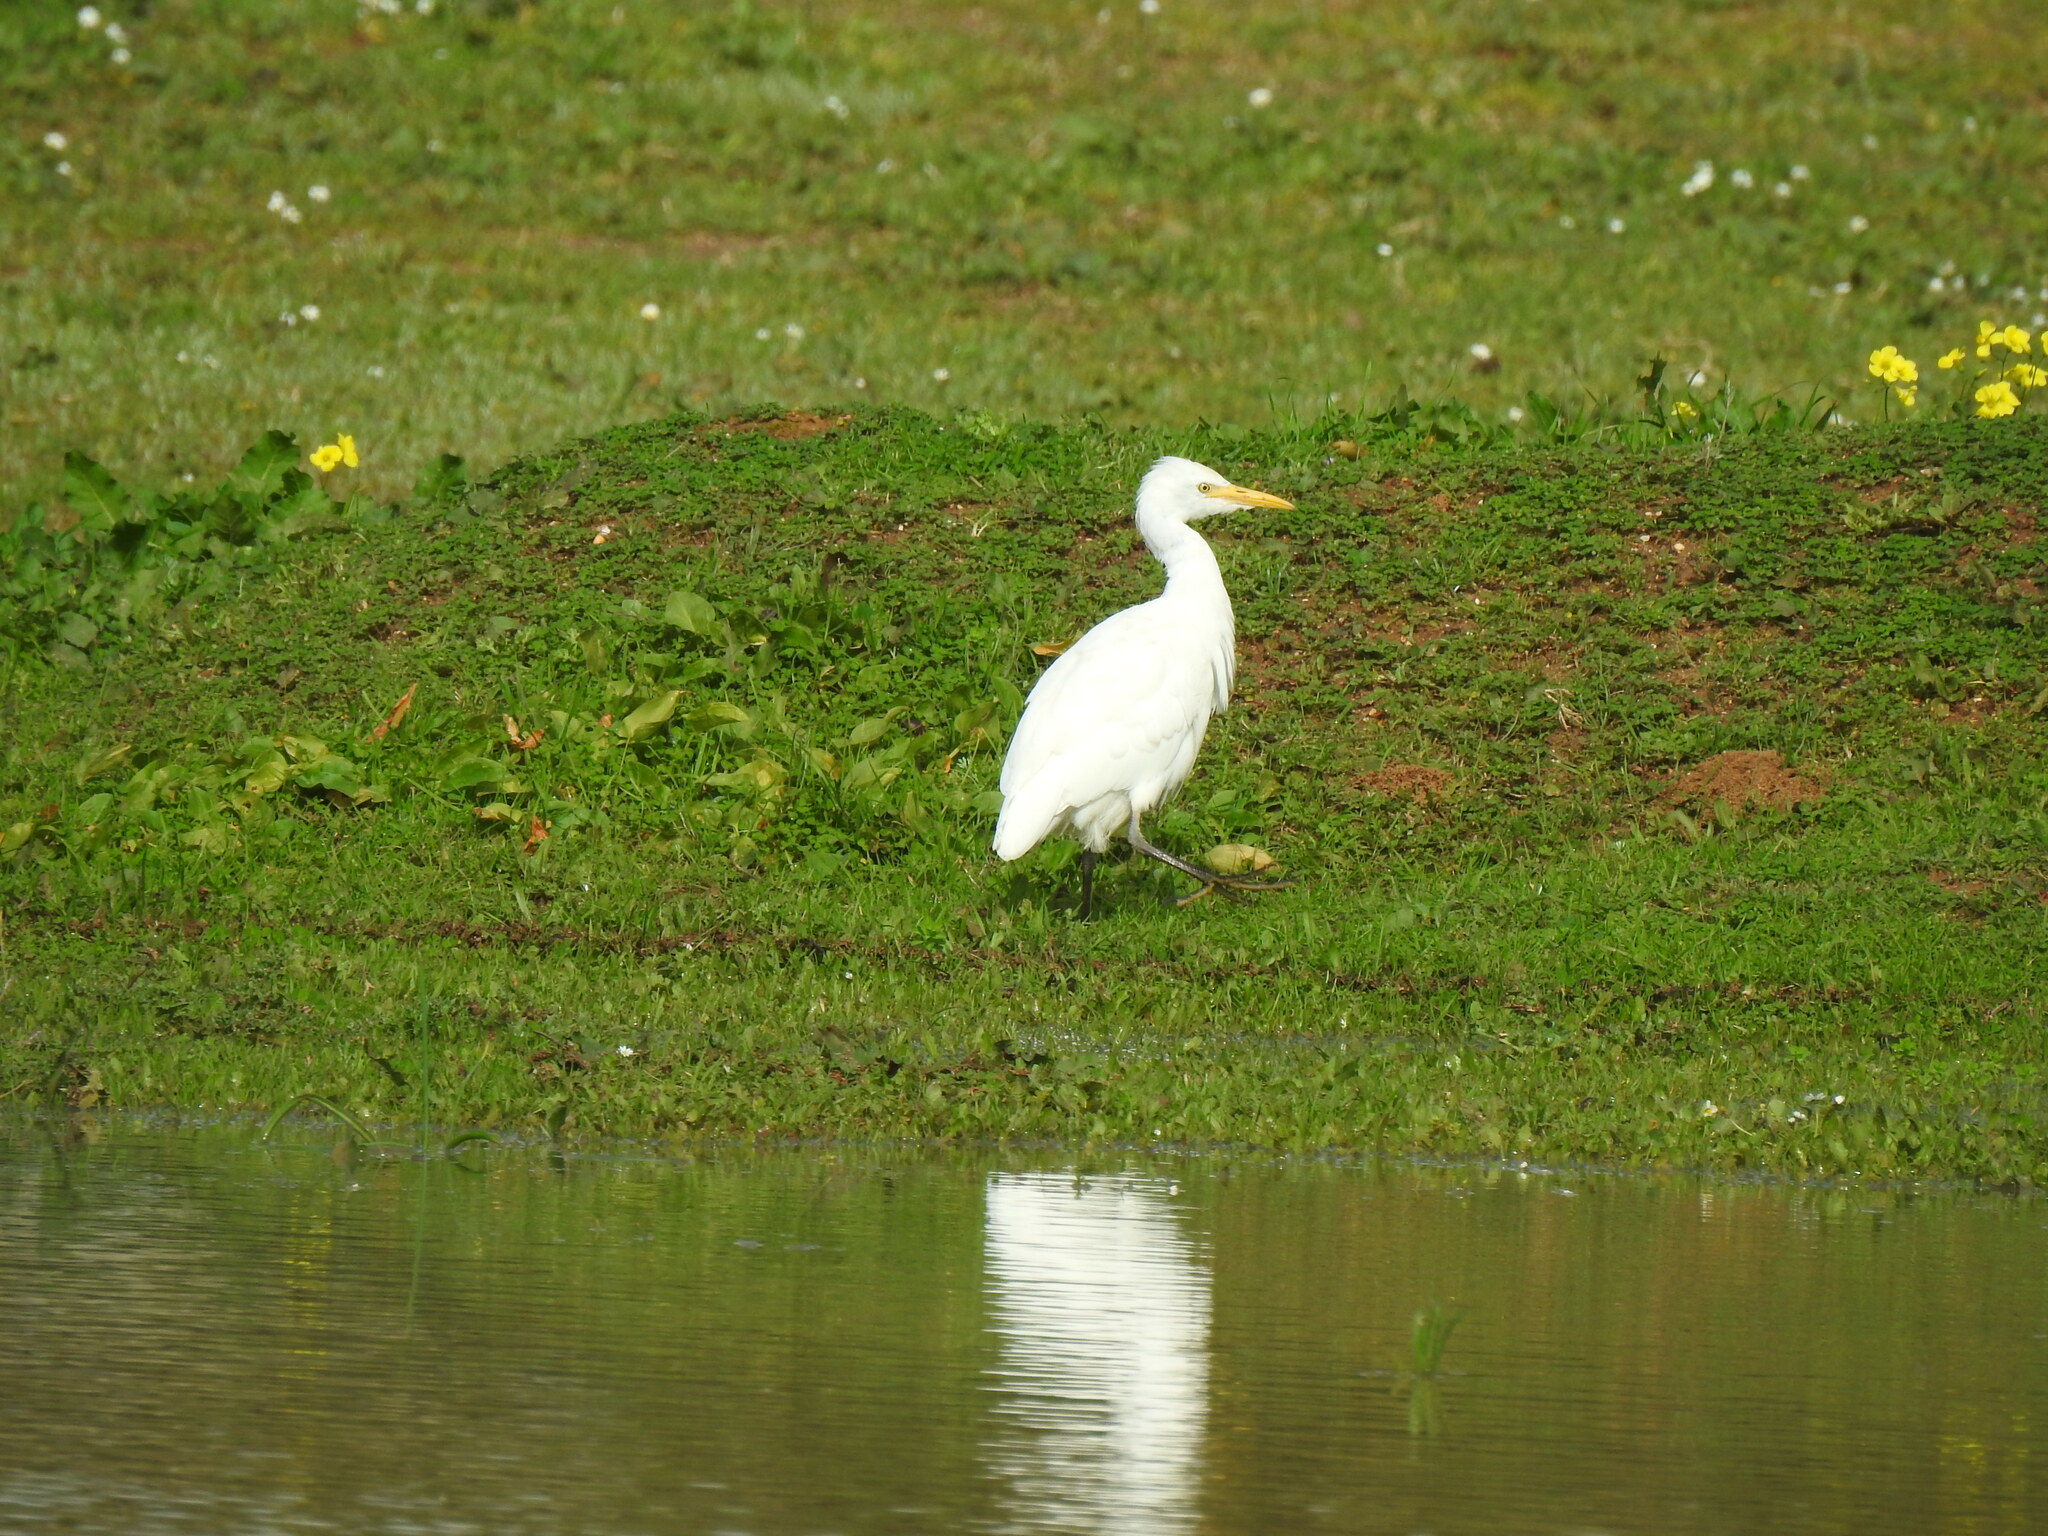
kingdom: Animalia
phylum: Chordata
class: Aves
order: Pelecaniformes
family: Ardeidae
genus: Bubulcus
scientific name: Bubulcus ibis
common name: Cattle egret
